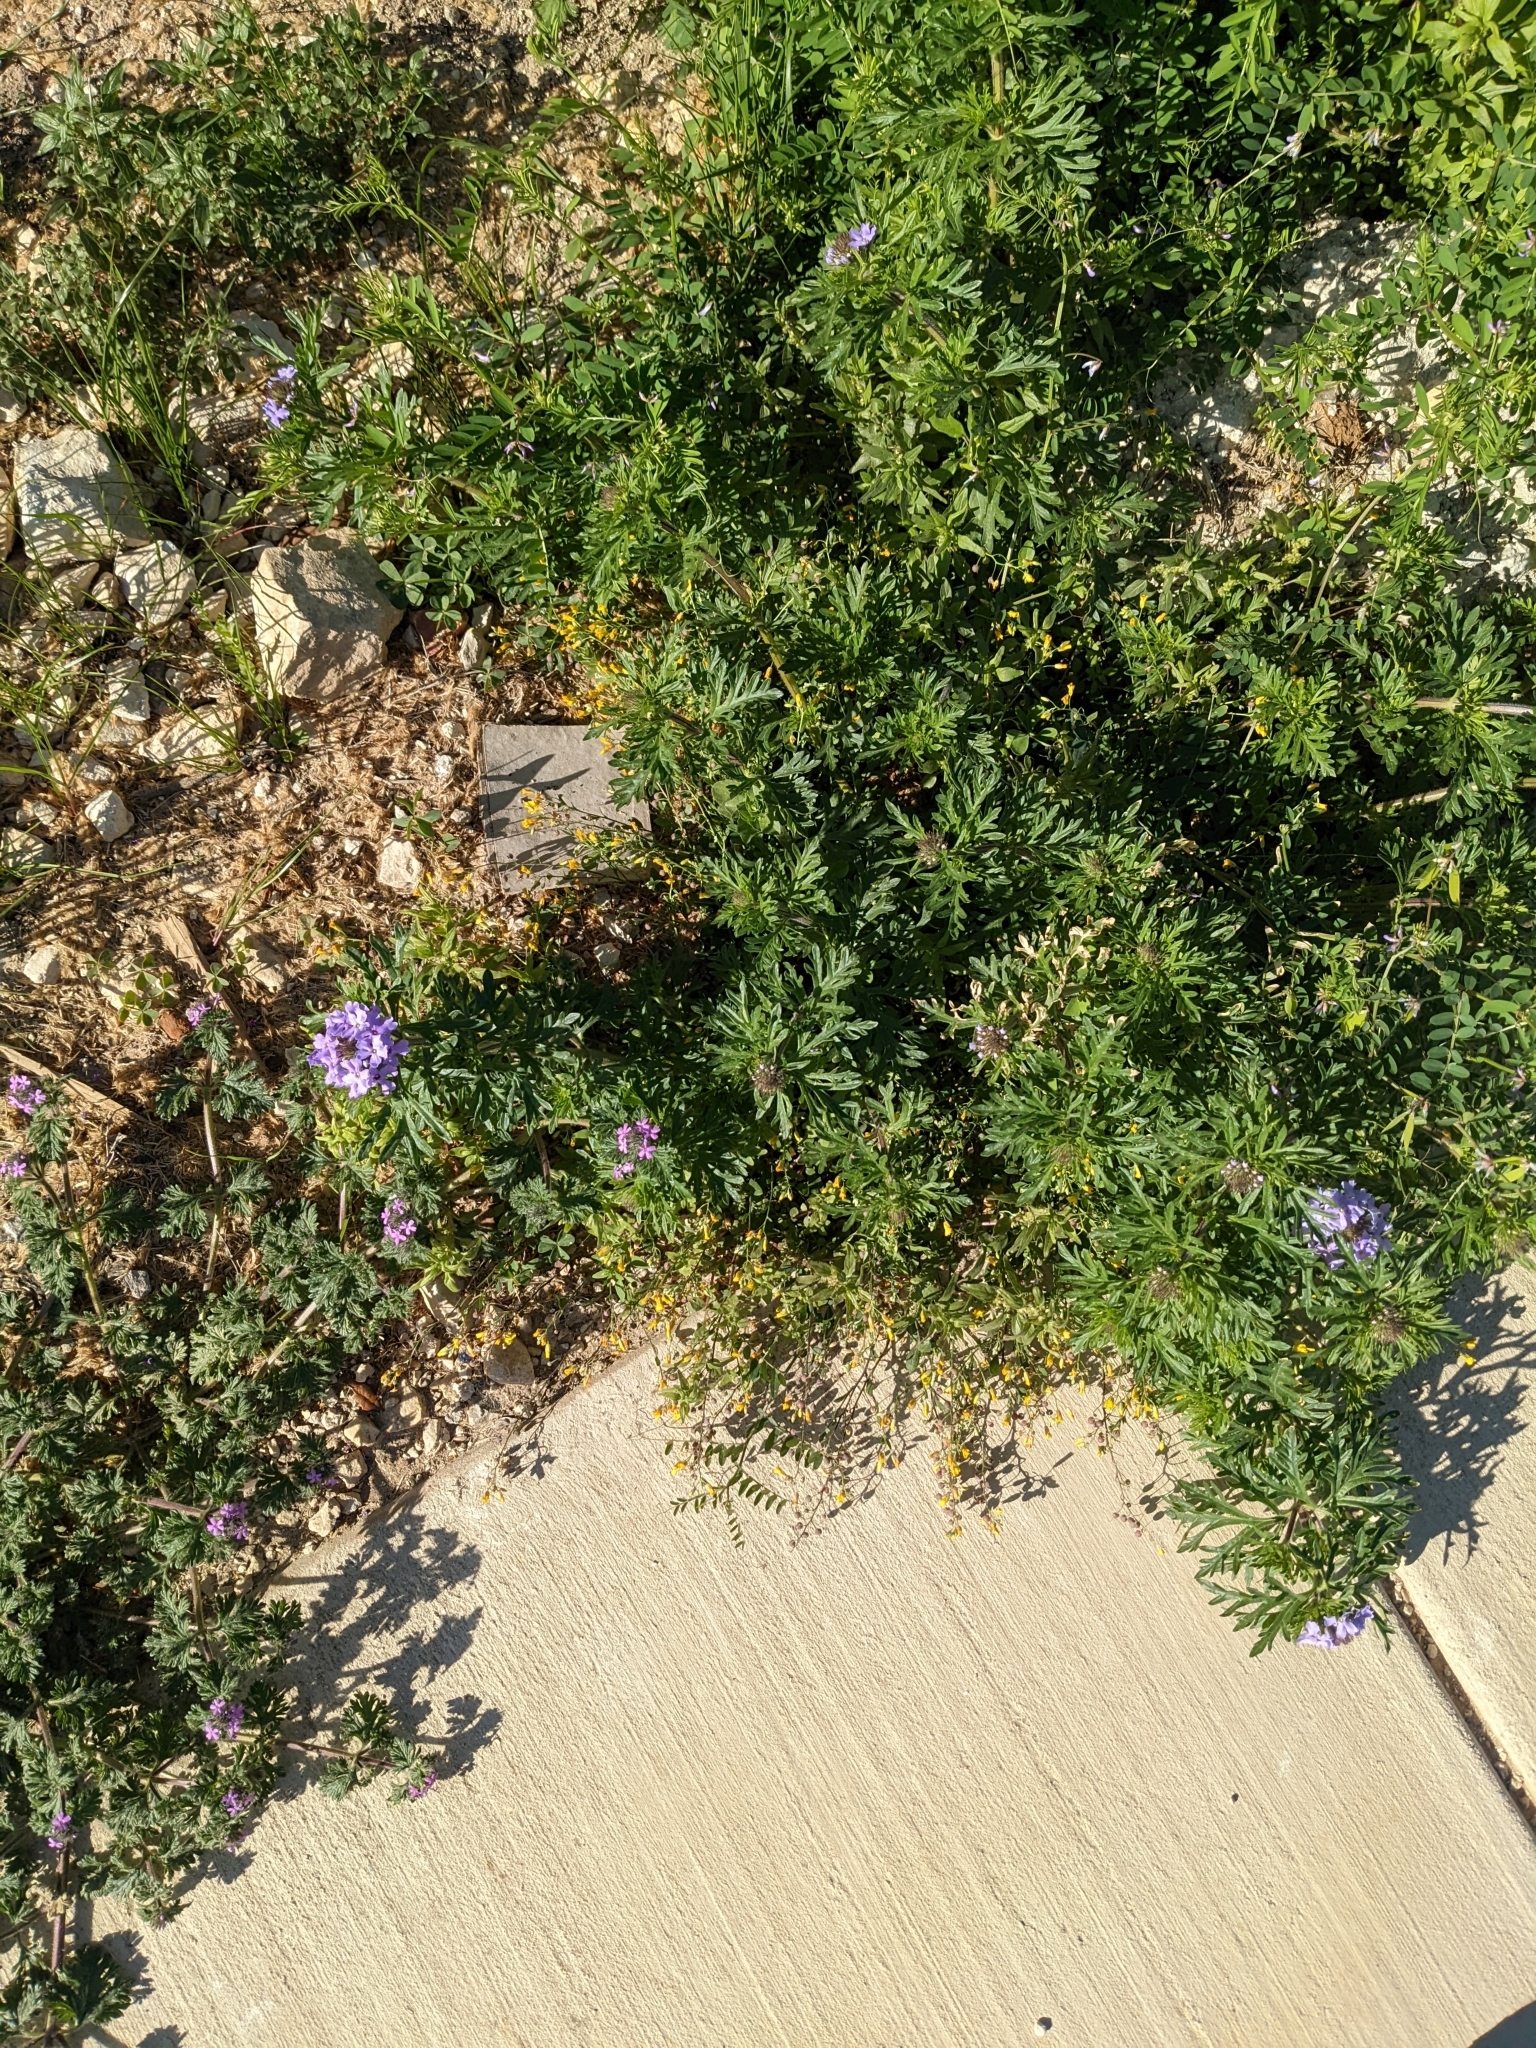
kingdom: Plantae
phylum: Tracheophyta
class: Magnoliopsida
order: Lamiales
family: Verbenaceae
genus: Verbena
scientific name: Verbena bipinnatifida
